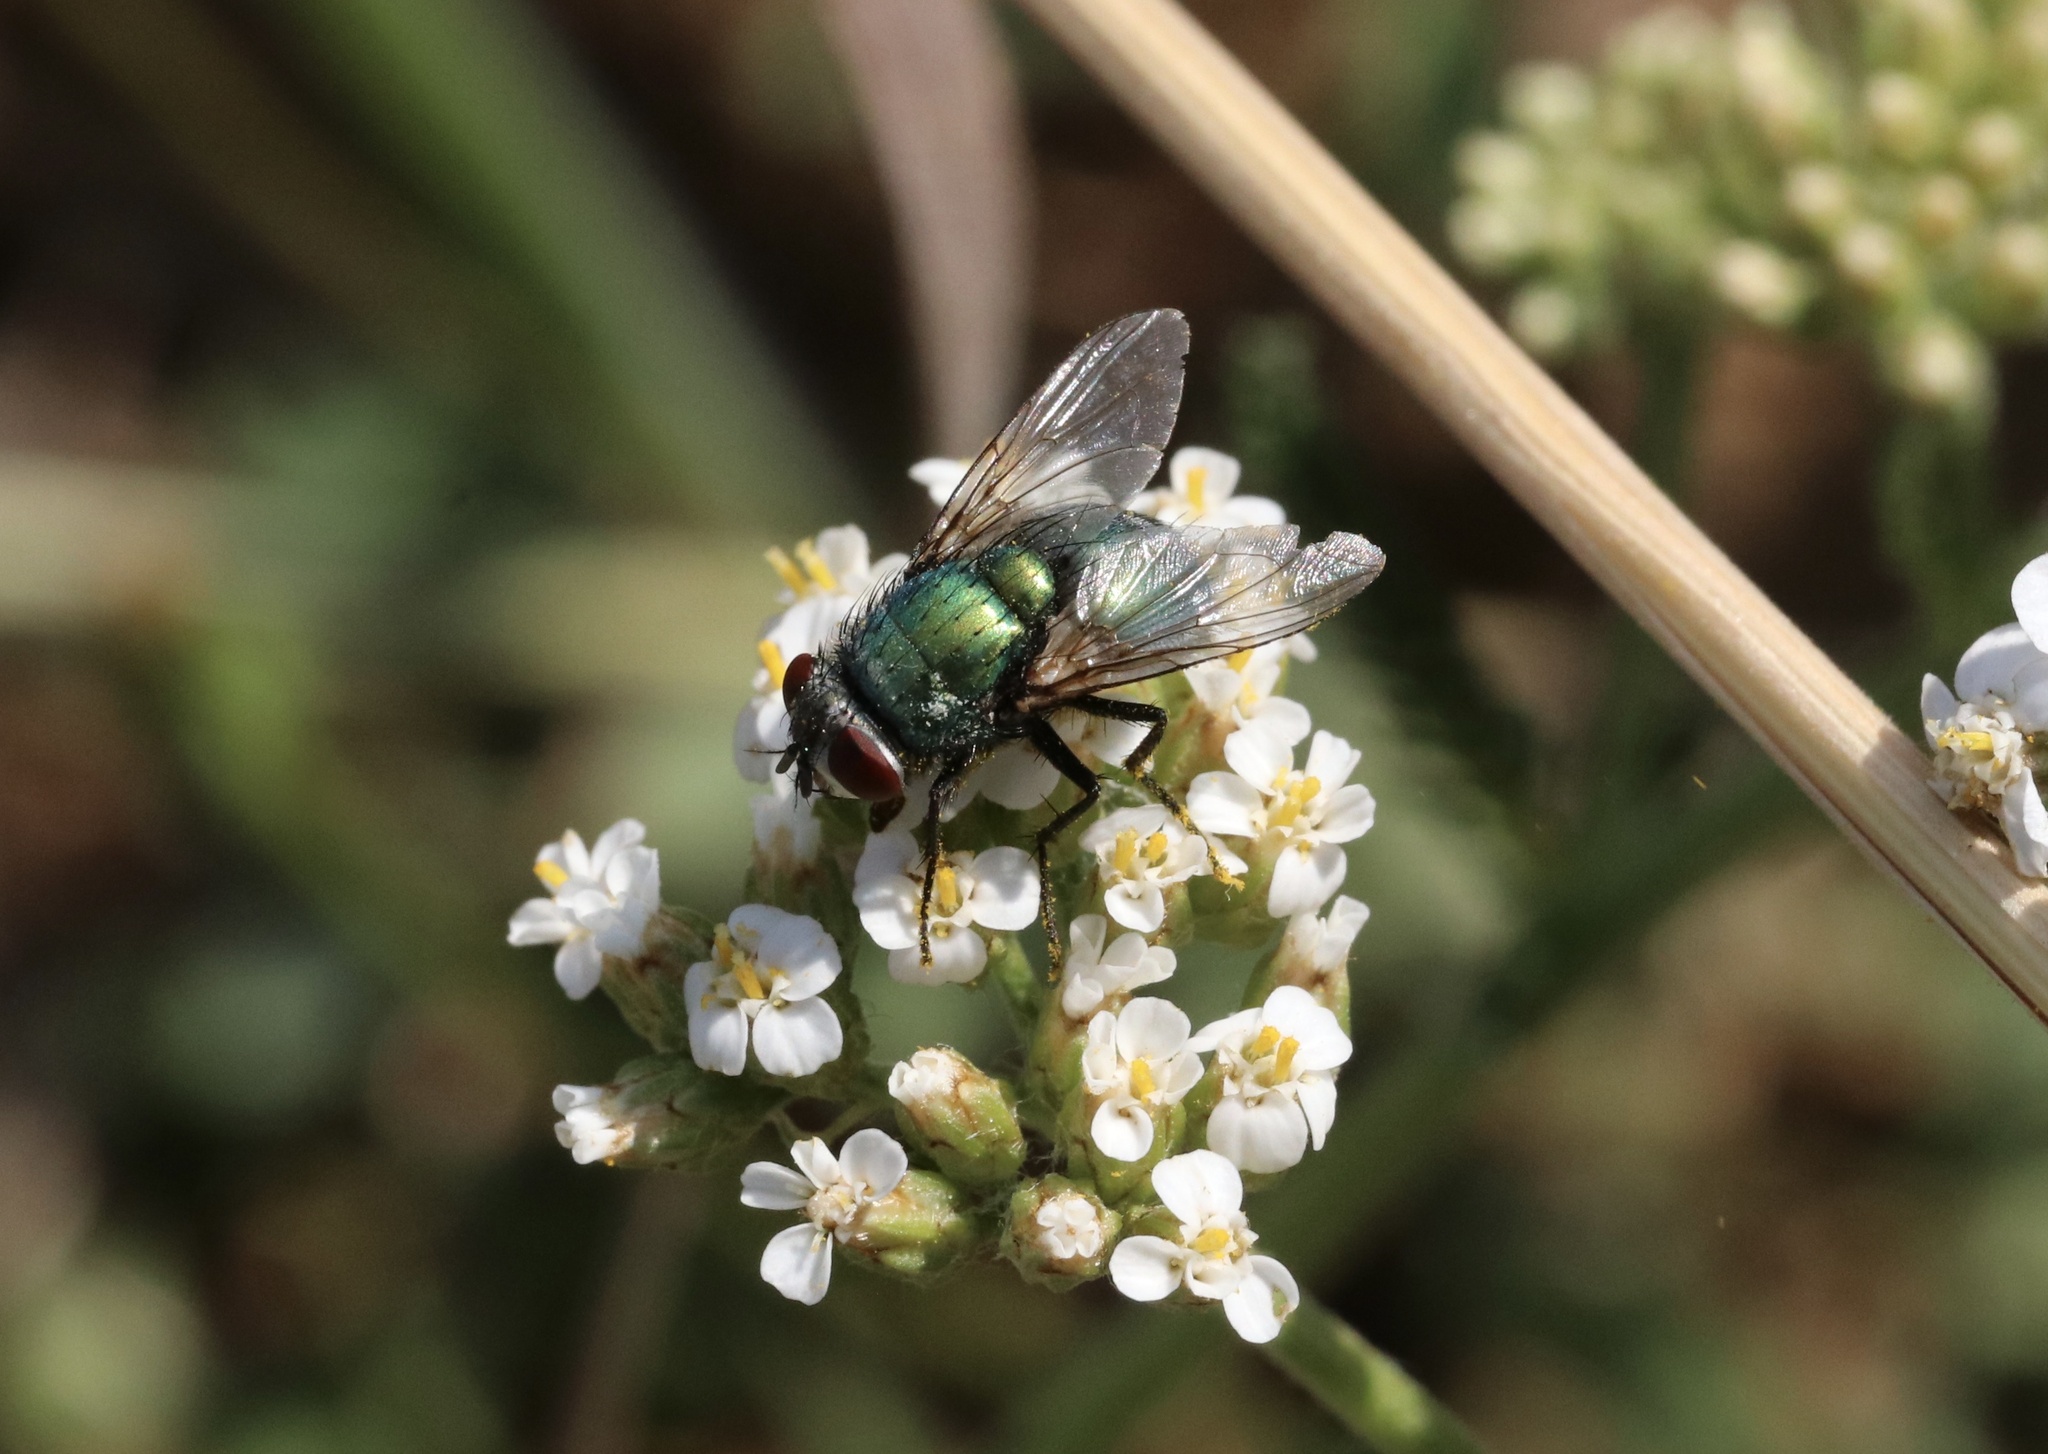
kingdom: Animalia
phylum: Arthropoda
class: Insecta
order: Diptera
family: Calliphoridae
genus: Lucilia
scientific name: Lucilia sericata
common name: Blow fly
